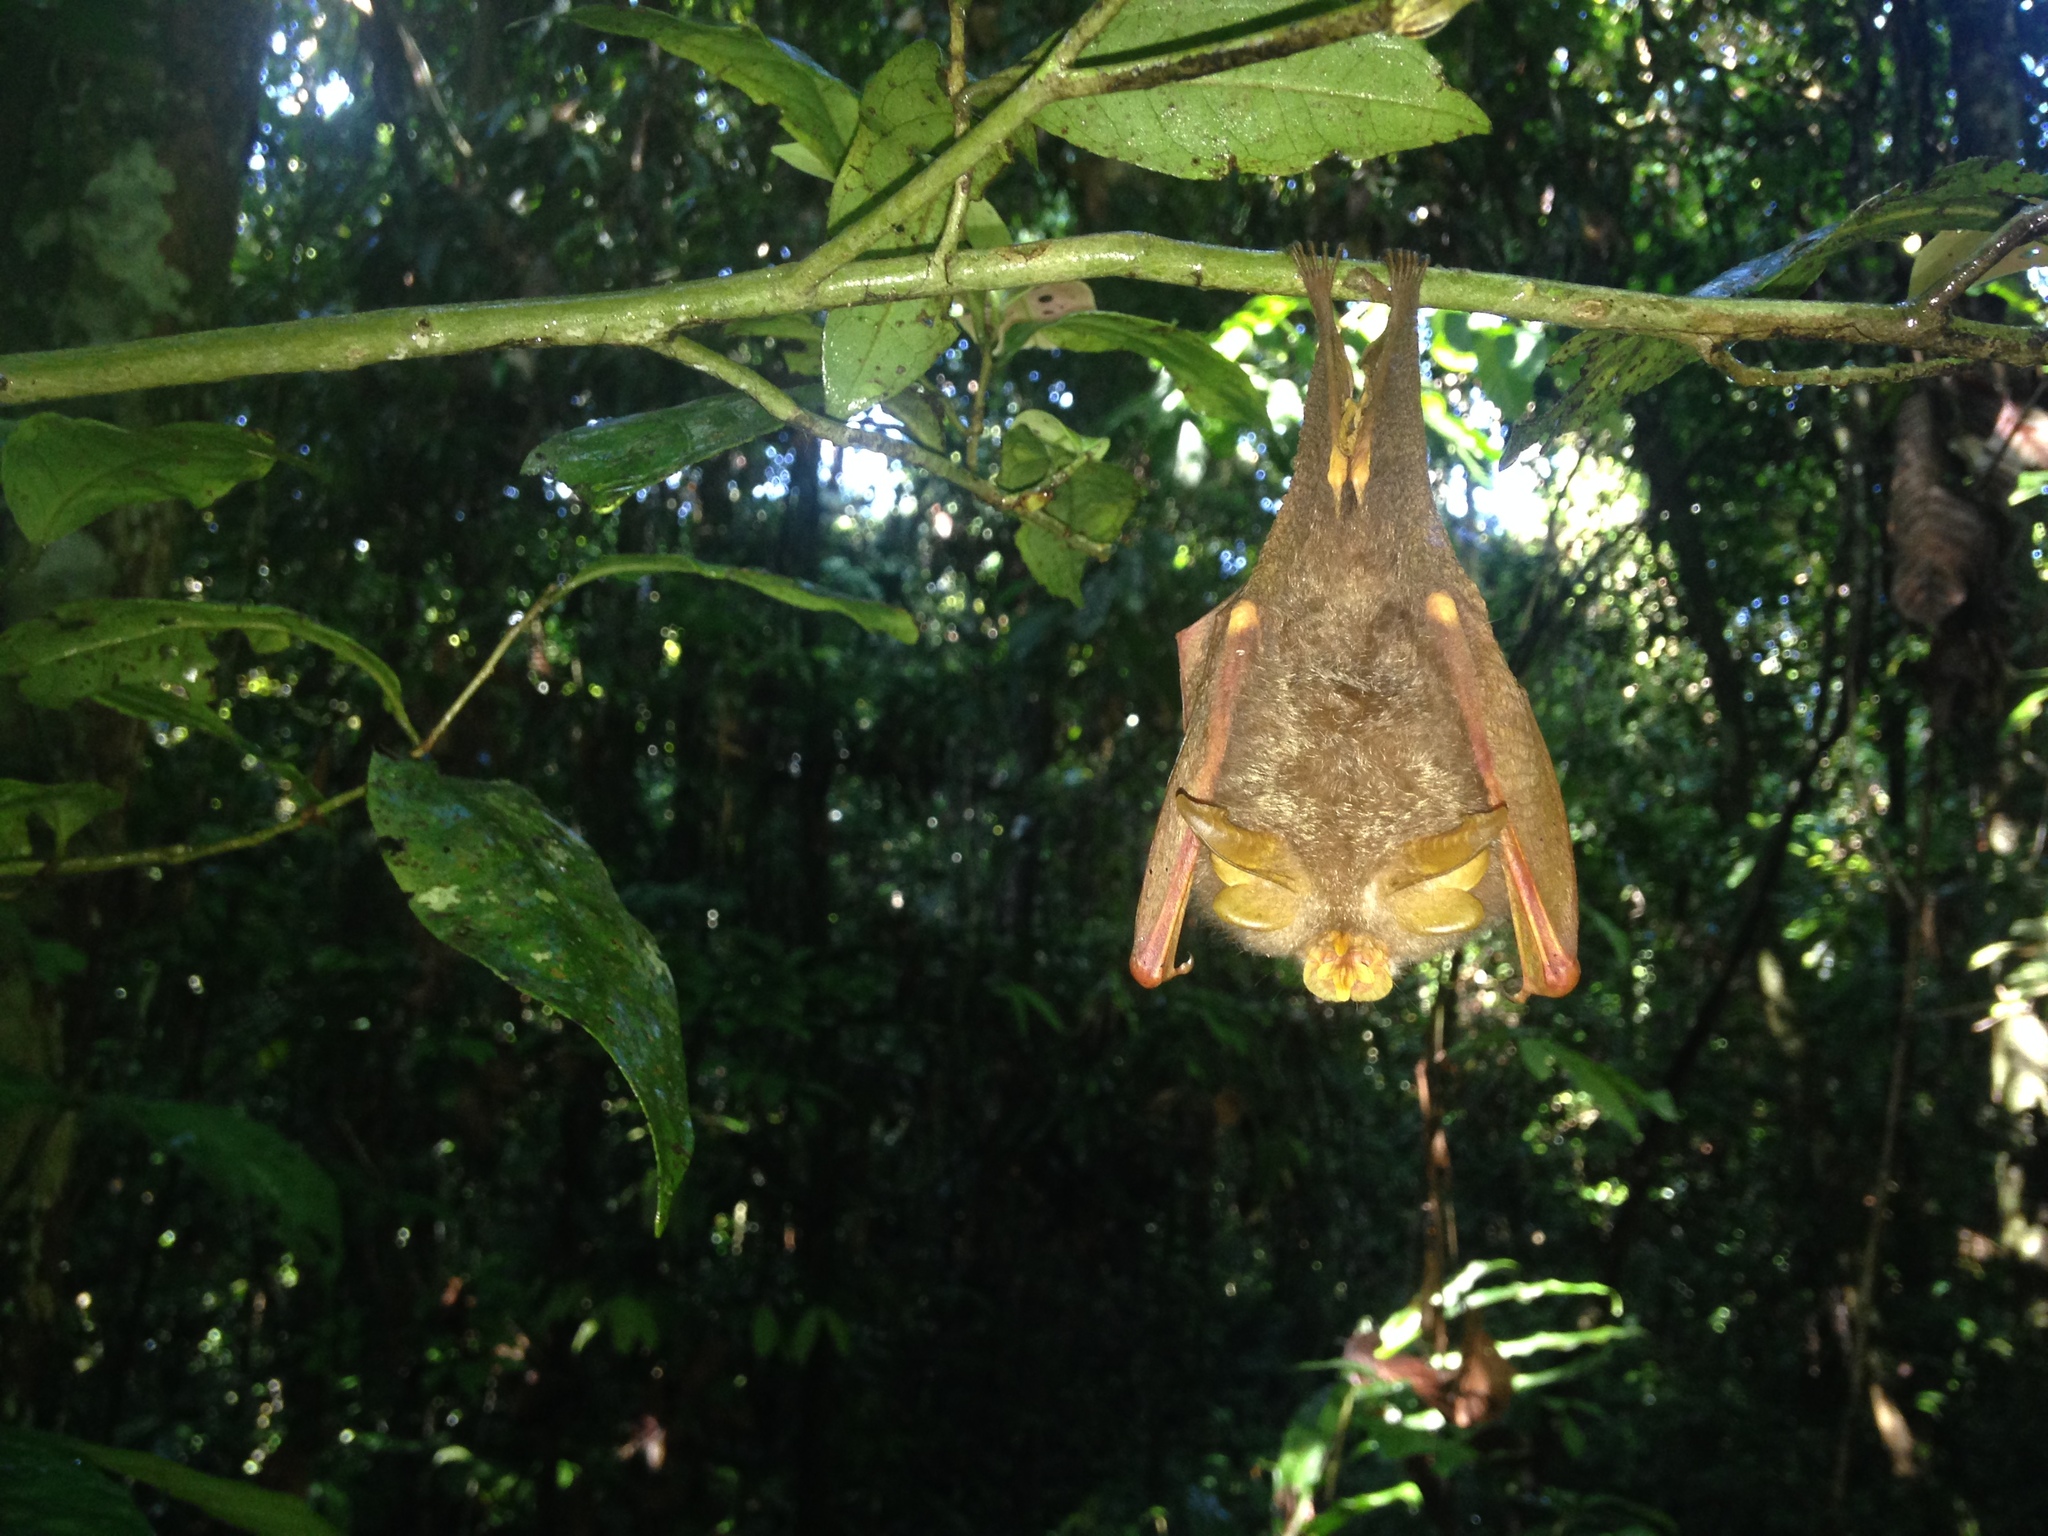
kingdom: Animalia
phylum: Chordata
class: Mammalia
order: Chiroptera
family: Rhinolophidae
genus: Rhinolophus
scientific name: Rhinolophus trifoliatus
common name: Trefoil horseshoe bat
